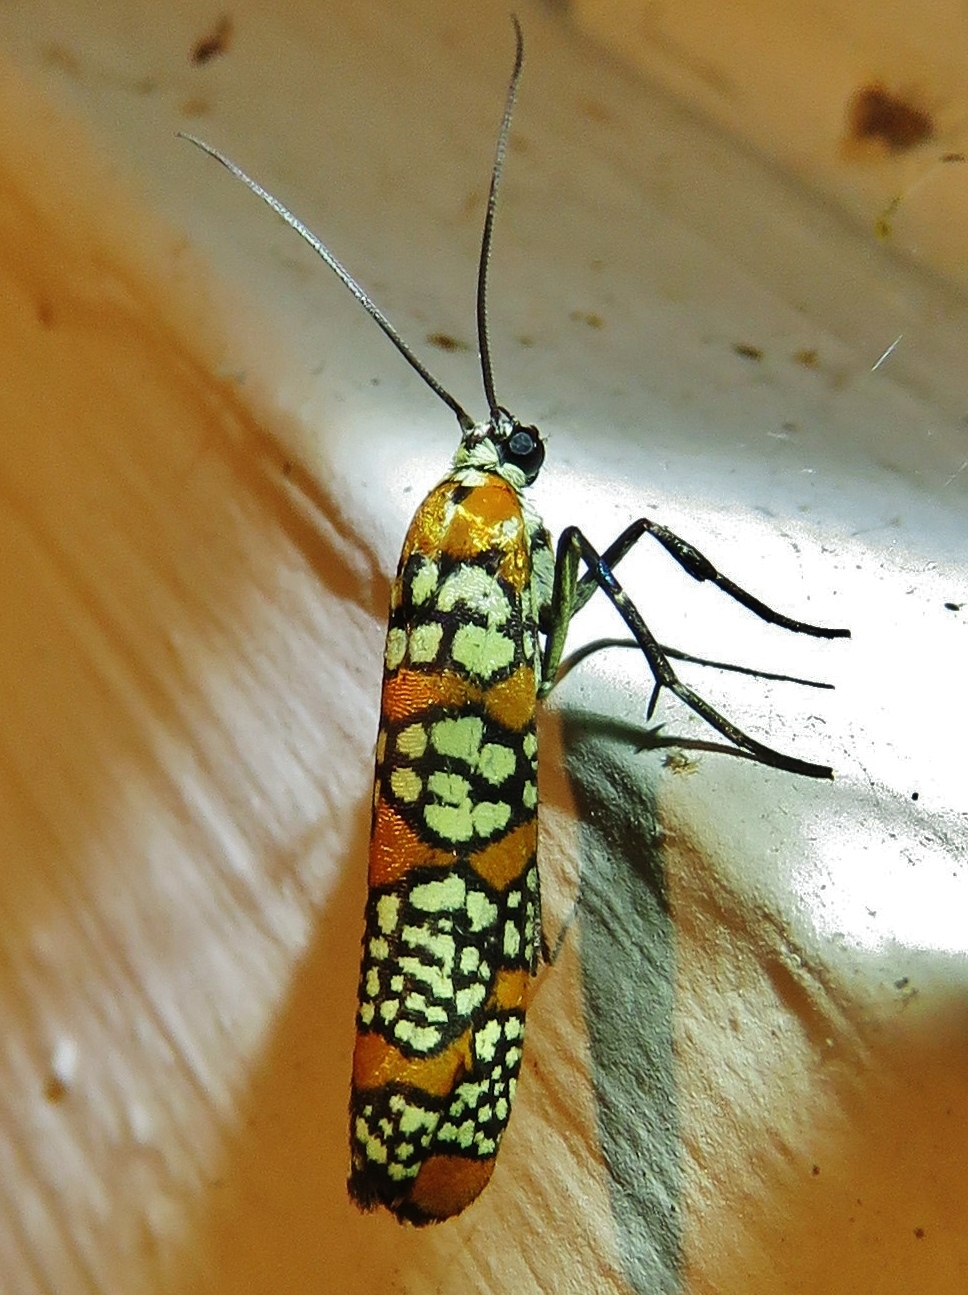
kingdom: Animalia
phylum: Arthropoda
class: Insecta
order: Lepidoptera
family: Attevidae
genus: Atteva
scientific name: Atteva punctella
